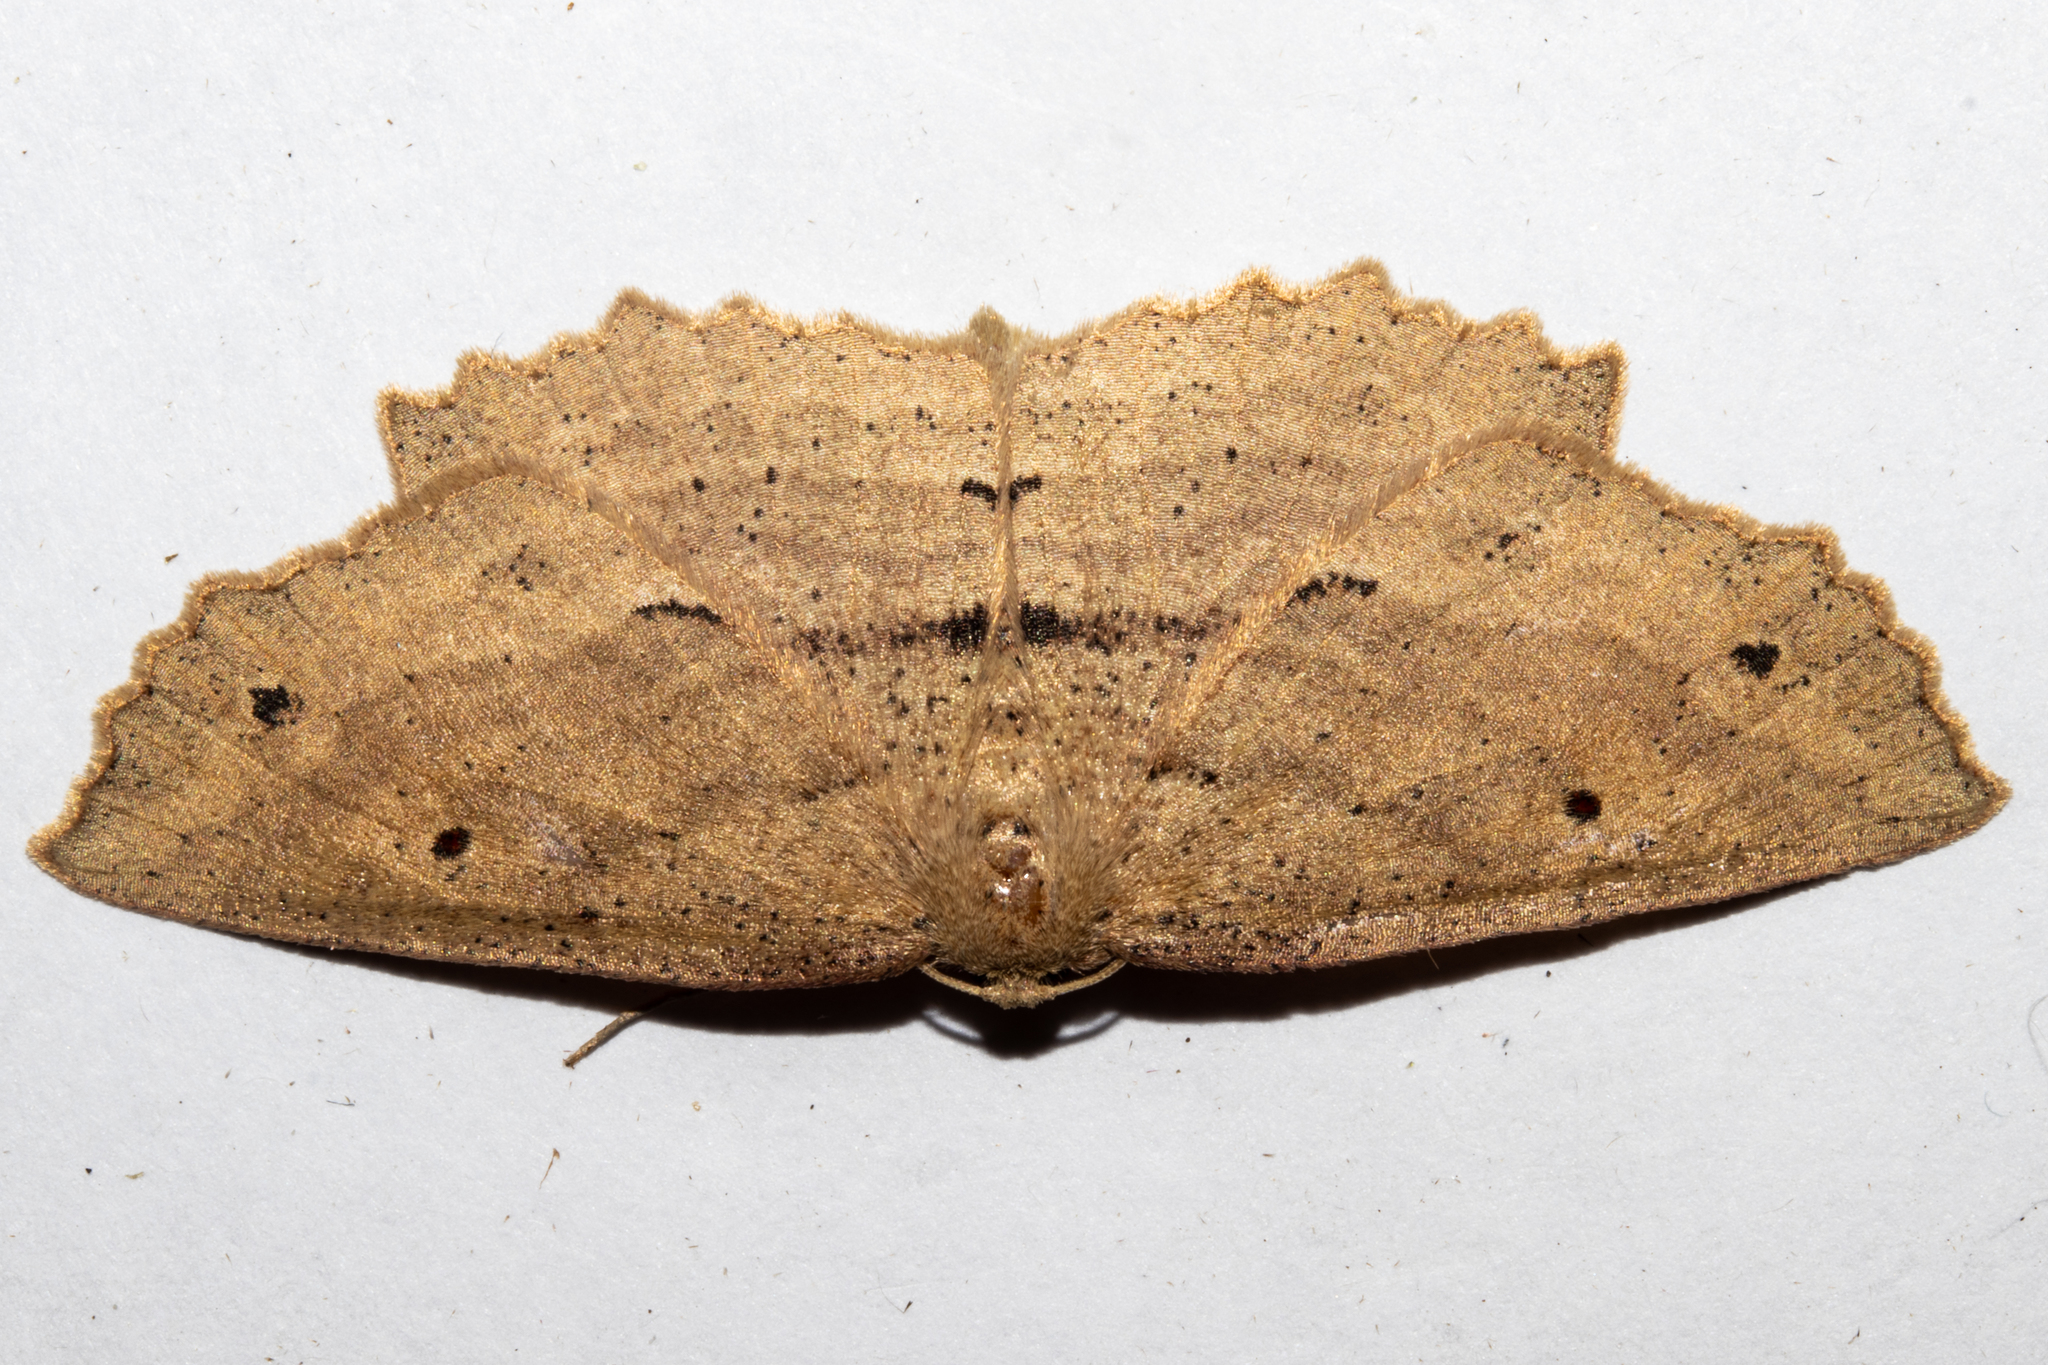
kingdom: Animalia
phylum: Arthropoda
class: Insecta
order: Lepidoptera
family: Geometridae
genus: Xyridacma
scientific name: Xyridacma veronicae
